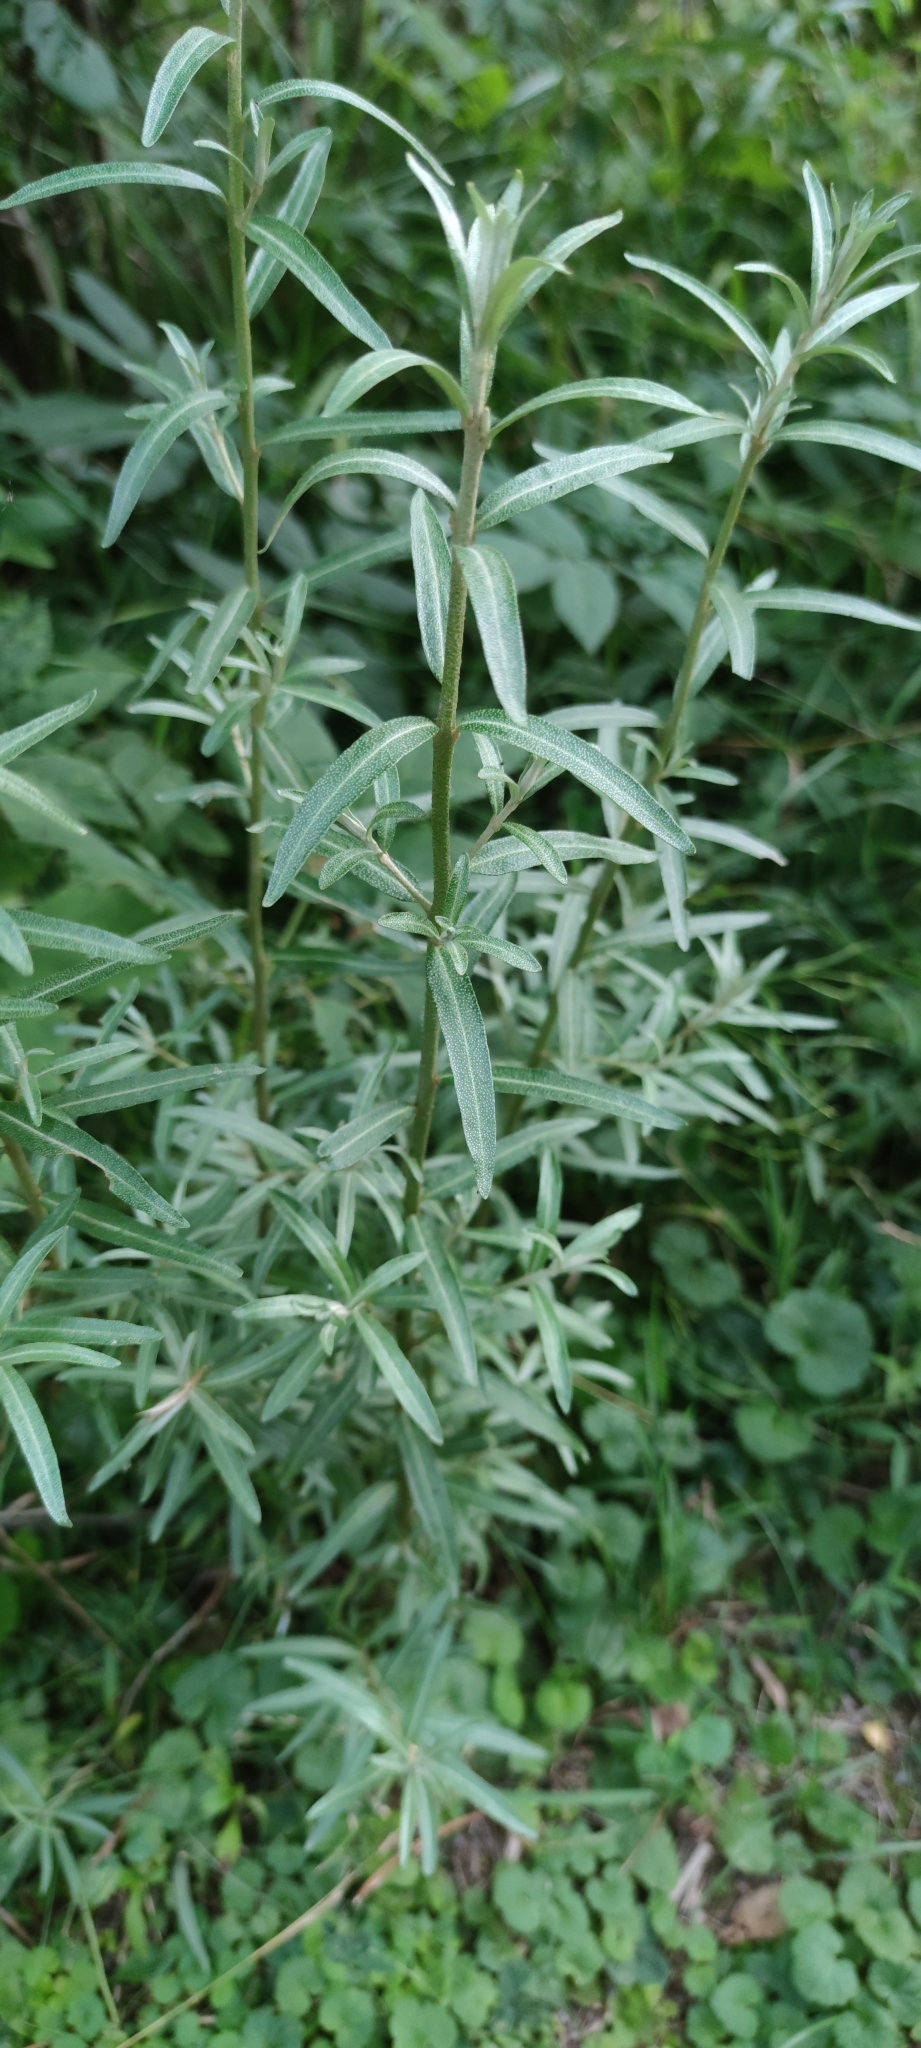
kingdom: Plantae
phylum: Tracheophyta
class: Magnoliopsida
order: Rosales
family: Elaeagnaceae
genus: Hippophae
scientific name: Hippophae rhamnoides
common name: Sea-buckthorn
